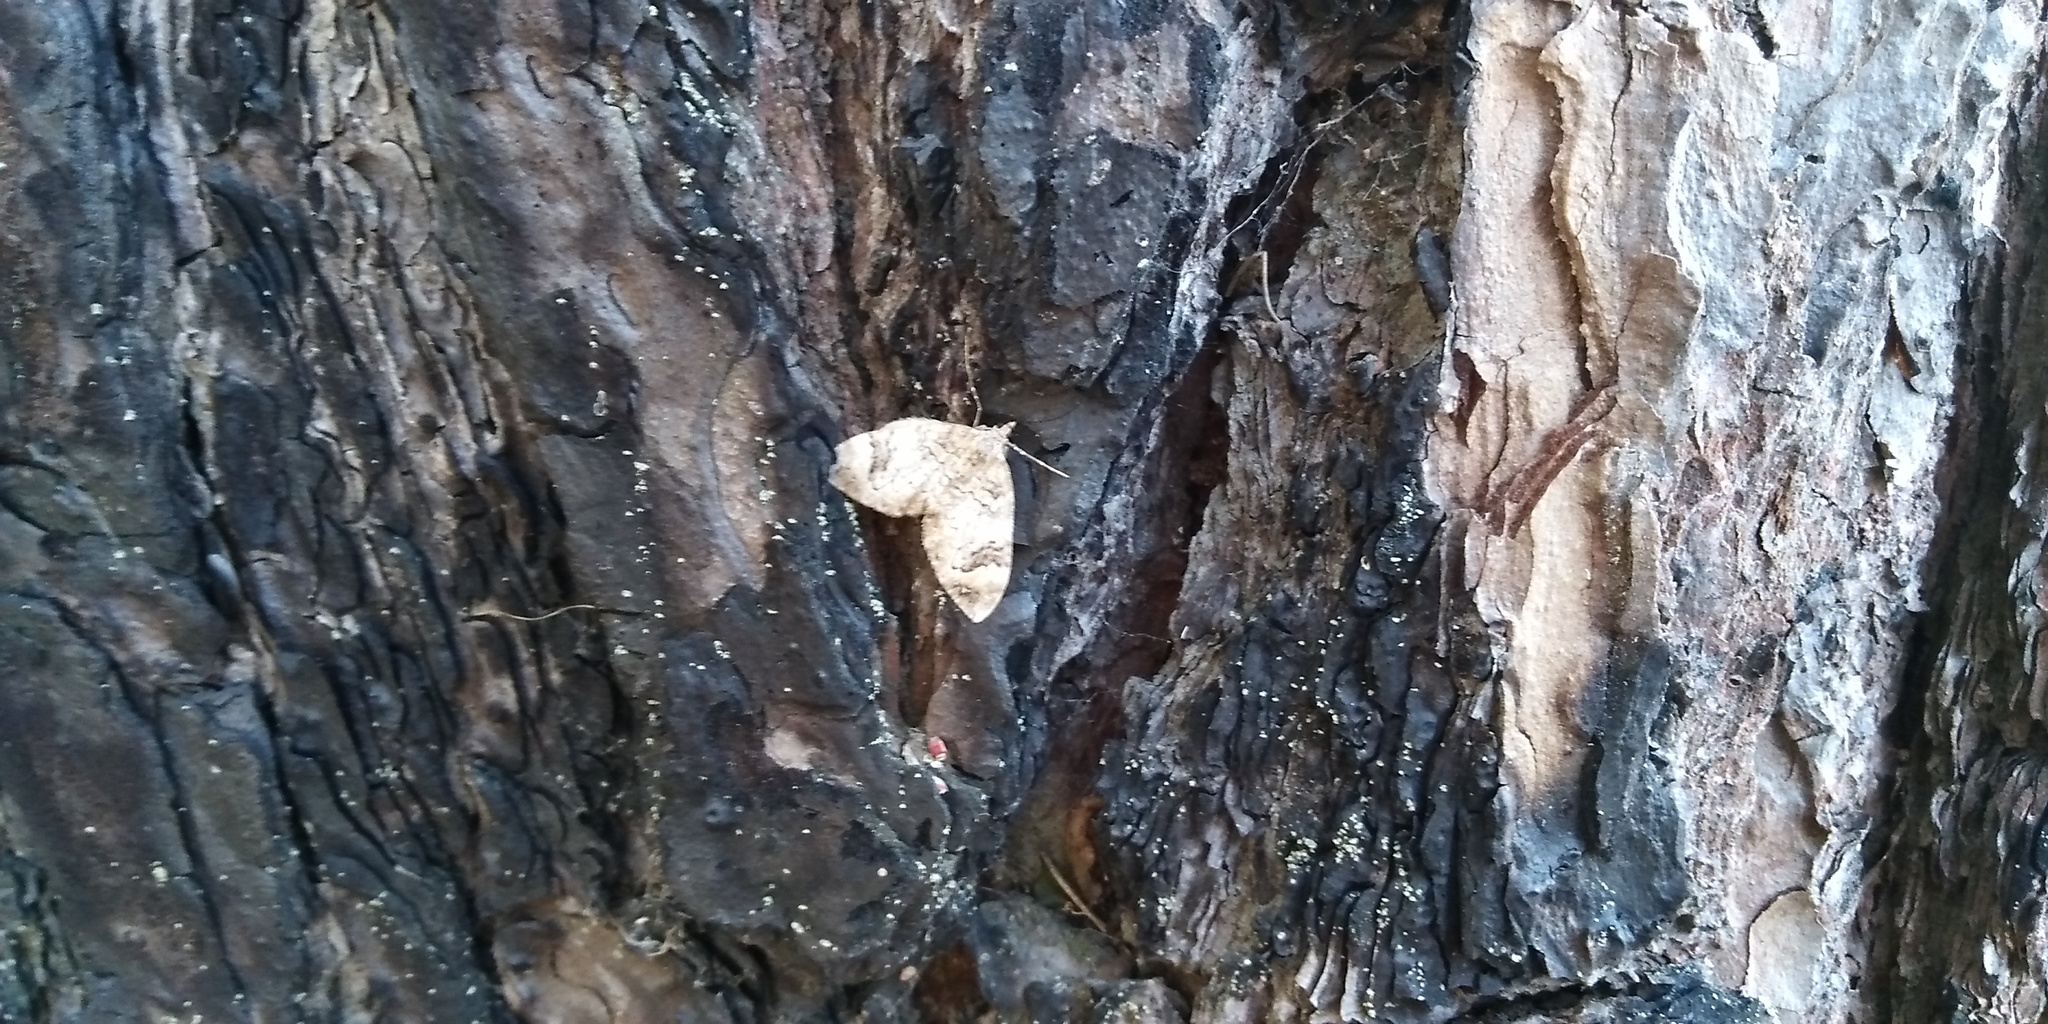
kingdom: Animalia
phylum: Arthropoda
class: Insecta
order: Lepidoptera
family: Geometridae
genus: Dysstroma
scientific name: Dysstroma citrata
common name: Dark marbled carpet
